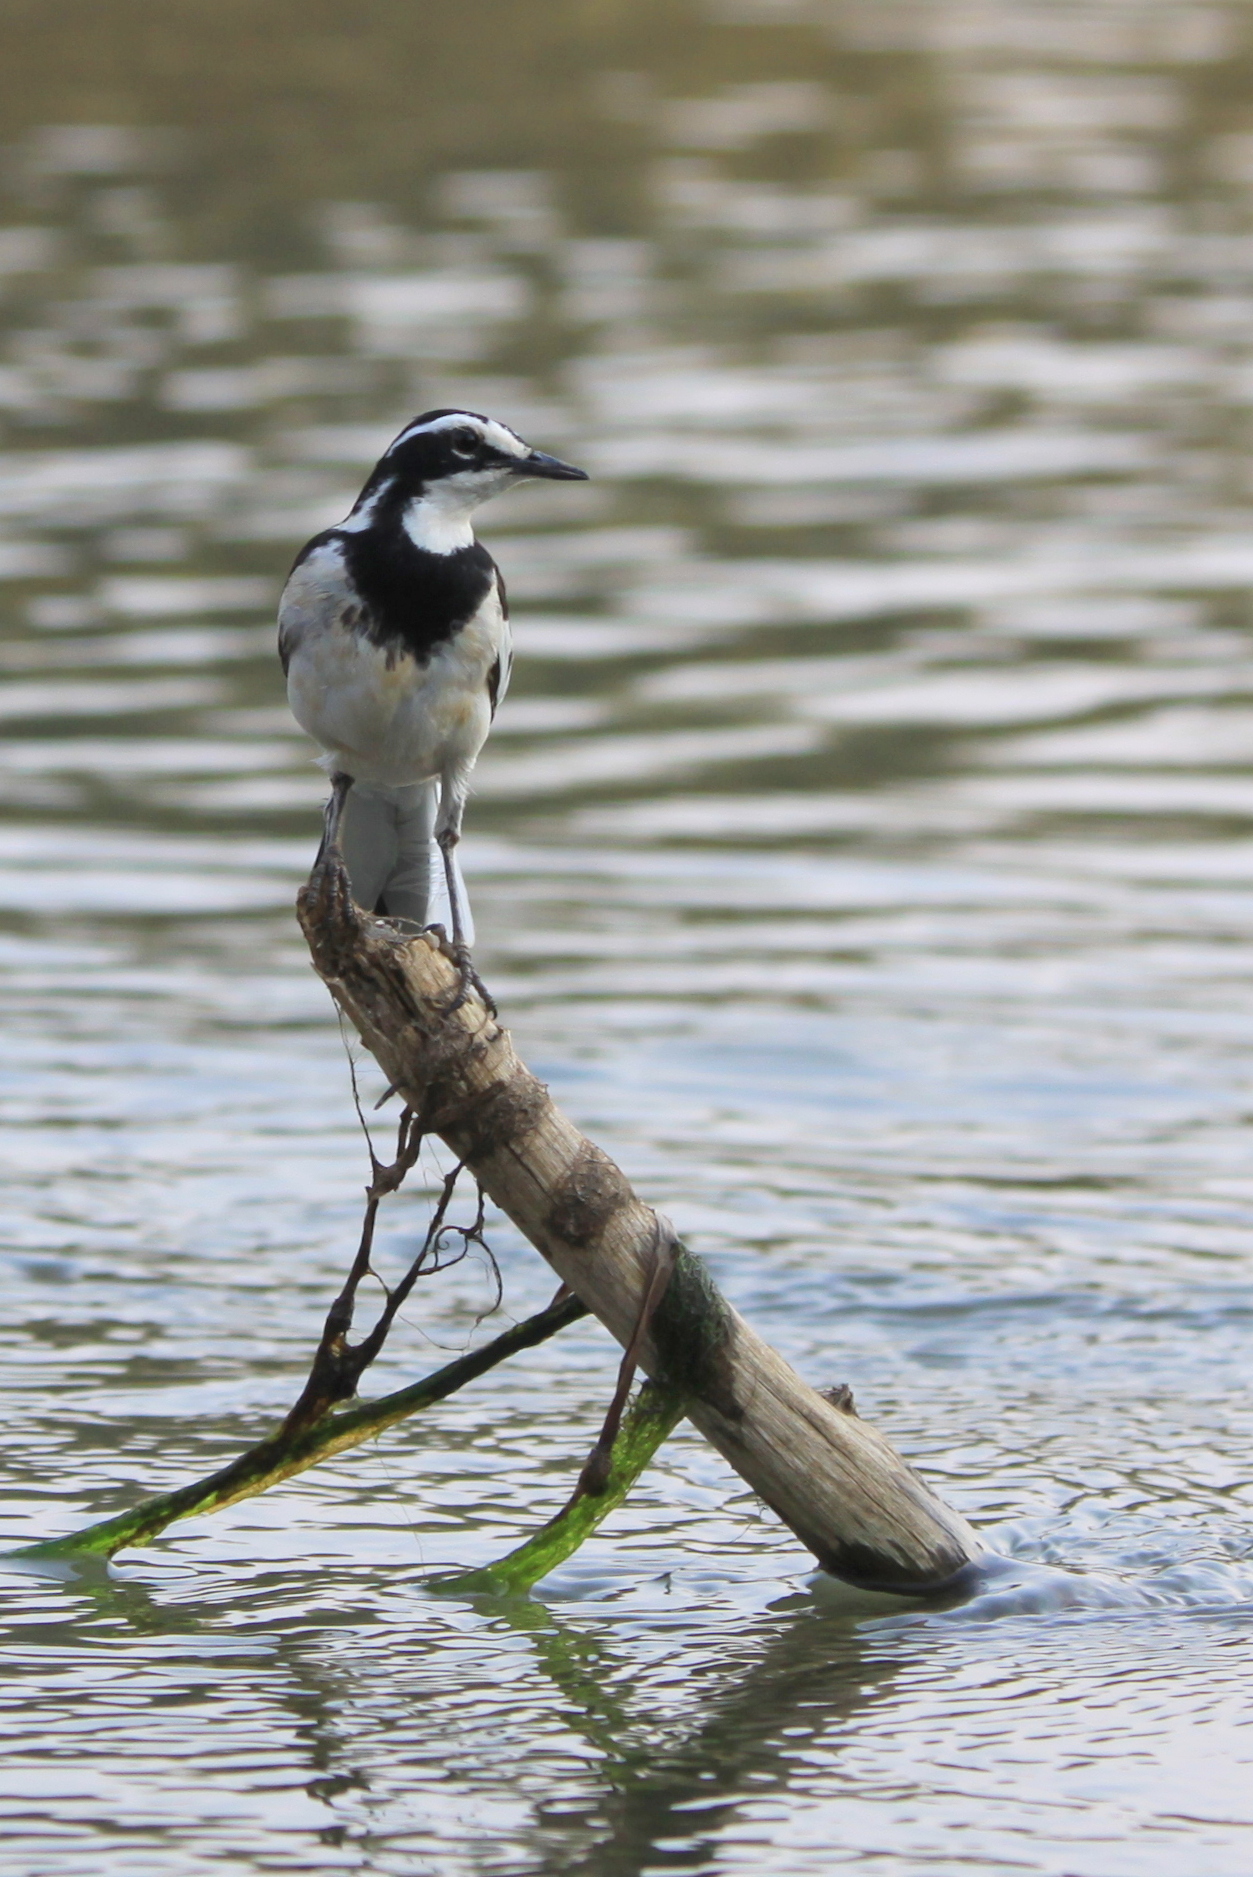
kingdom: Animalia
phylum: Chordata
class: Aves
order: Passeriformes
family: Motacillidae
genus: Motacilla
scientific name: Motacilla aguimp
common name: African pied wagtail
